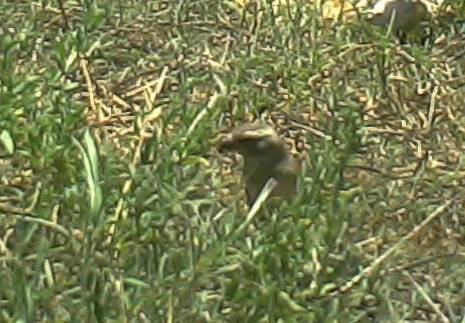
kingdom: Animalia
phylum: Chordata
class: Aves
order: Passeriformes
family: Passeridae
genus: Passer
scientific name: Passer melanurus
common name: Cape sparrow
